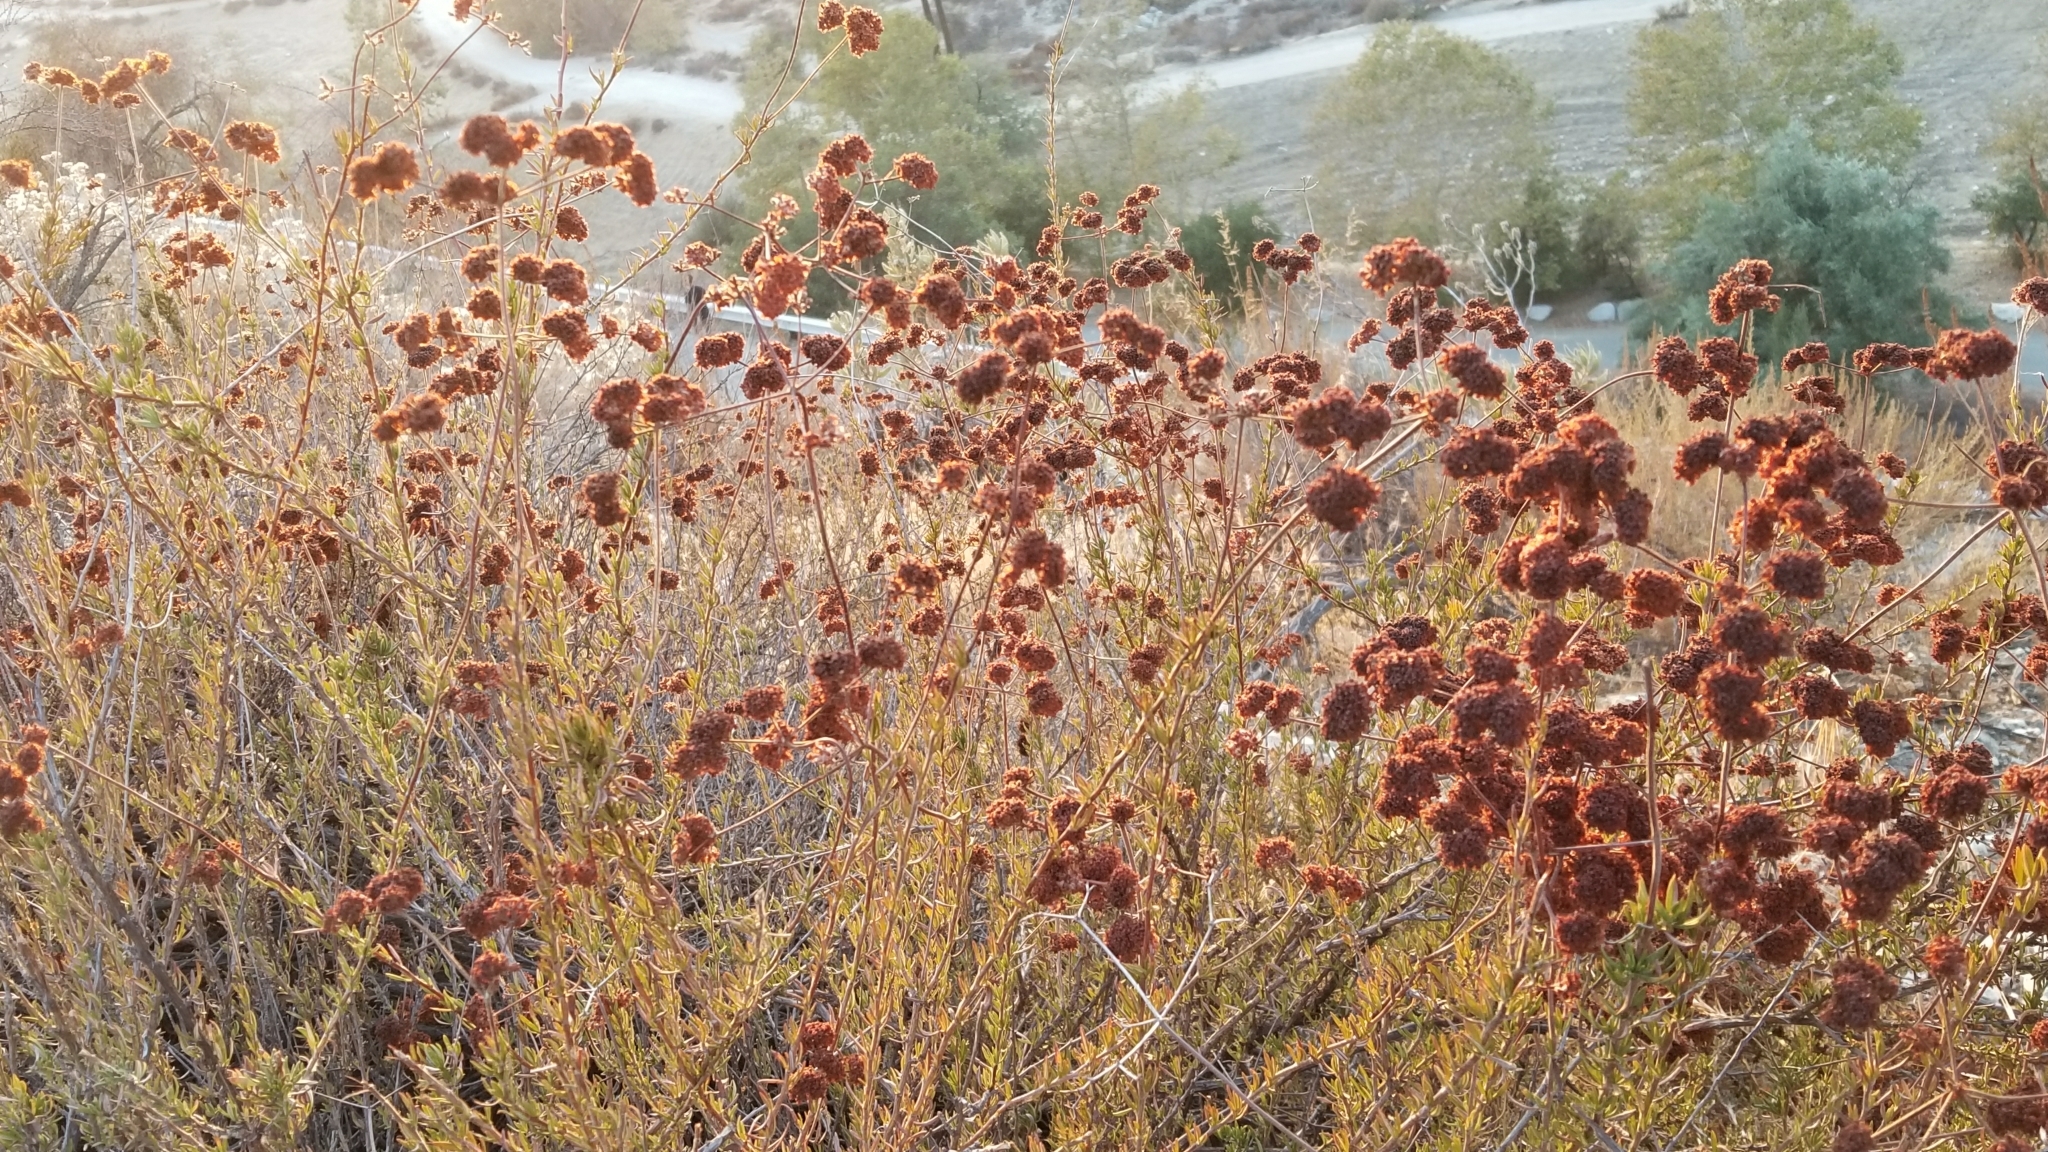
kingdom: Plantae
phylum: Tracheophyta
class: Magnoliopsida
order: Caryophyllales
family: Polygonaceae
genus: Eriogonum
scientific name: Eriogonum fasciculatum
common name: California wild buckwheat
